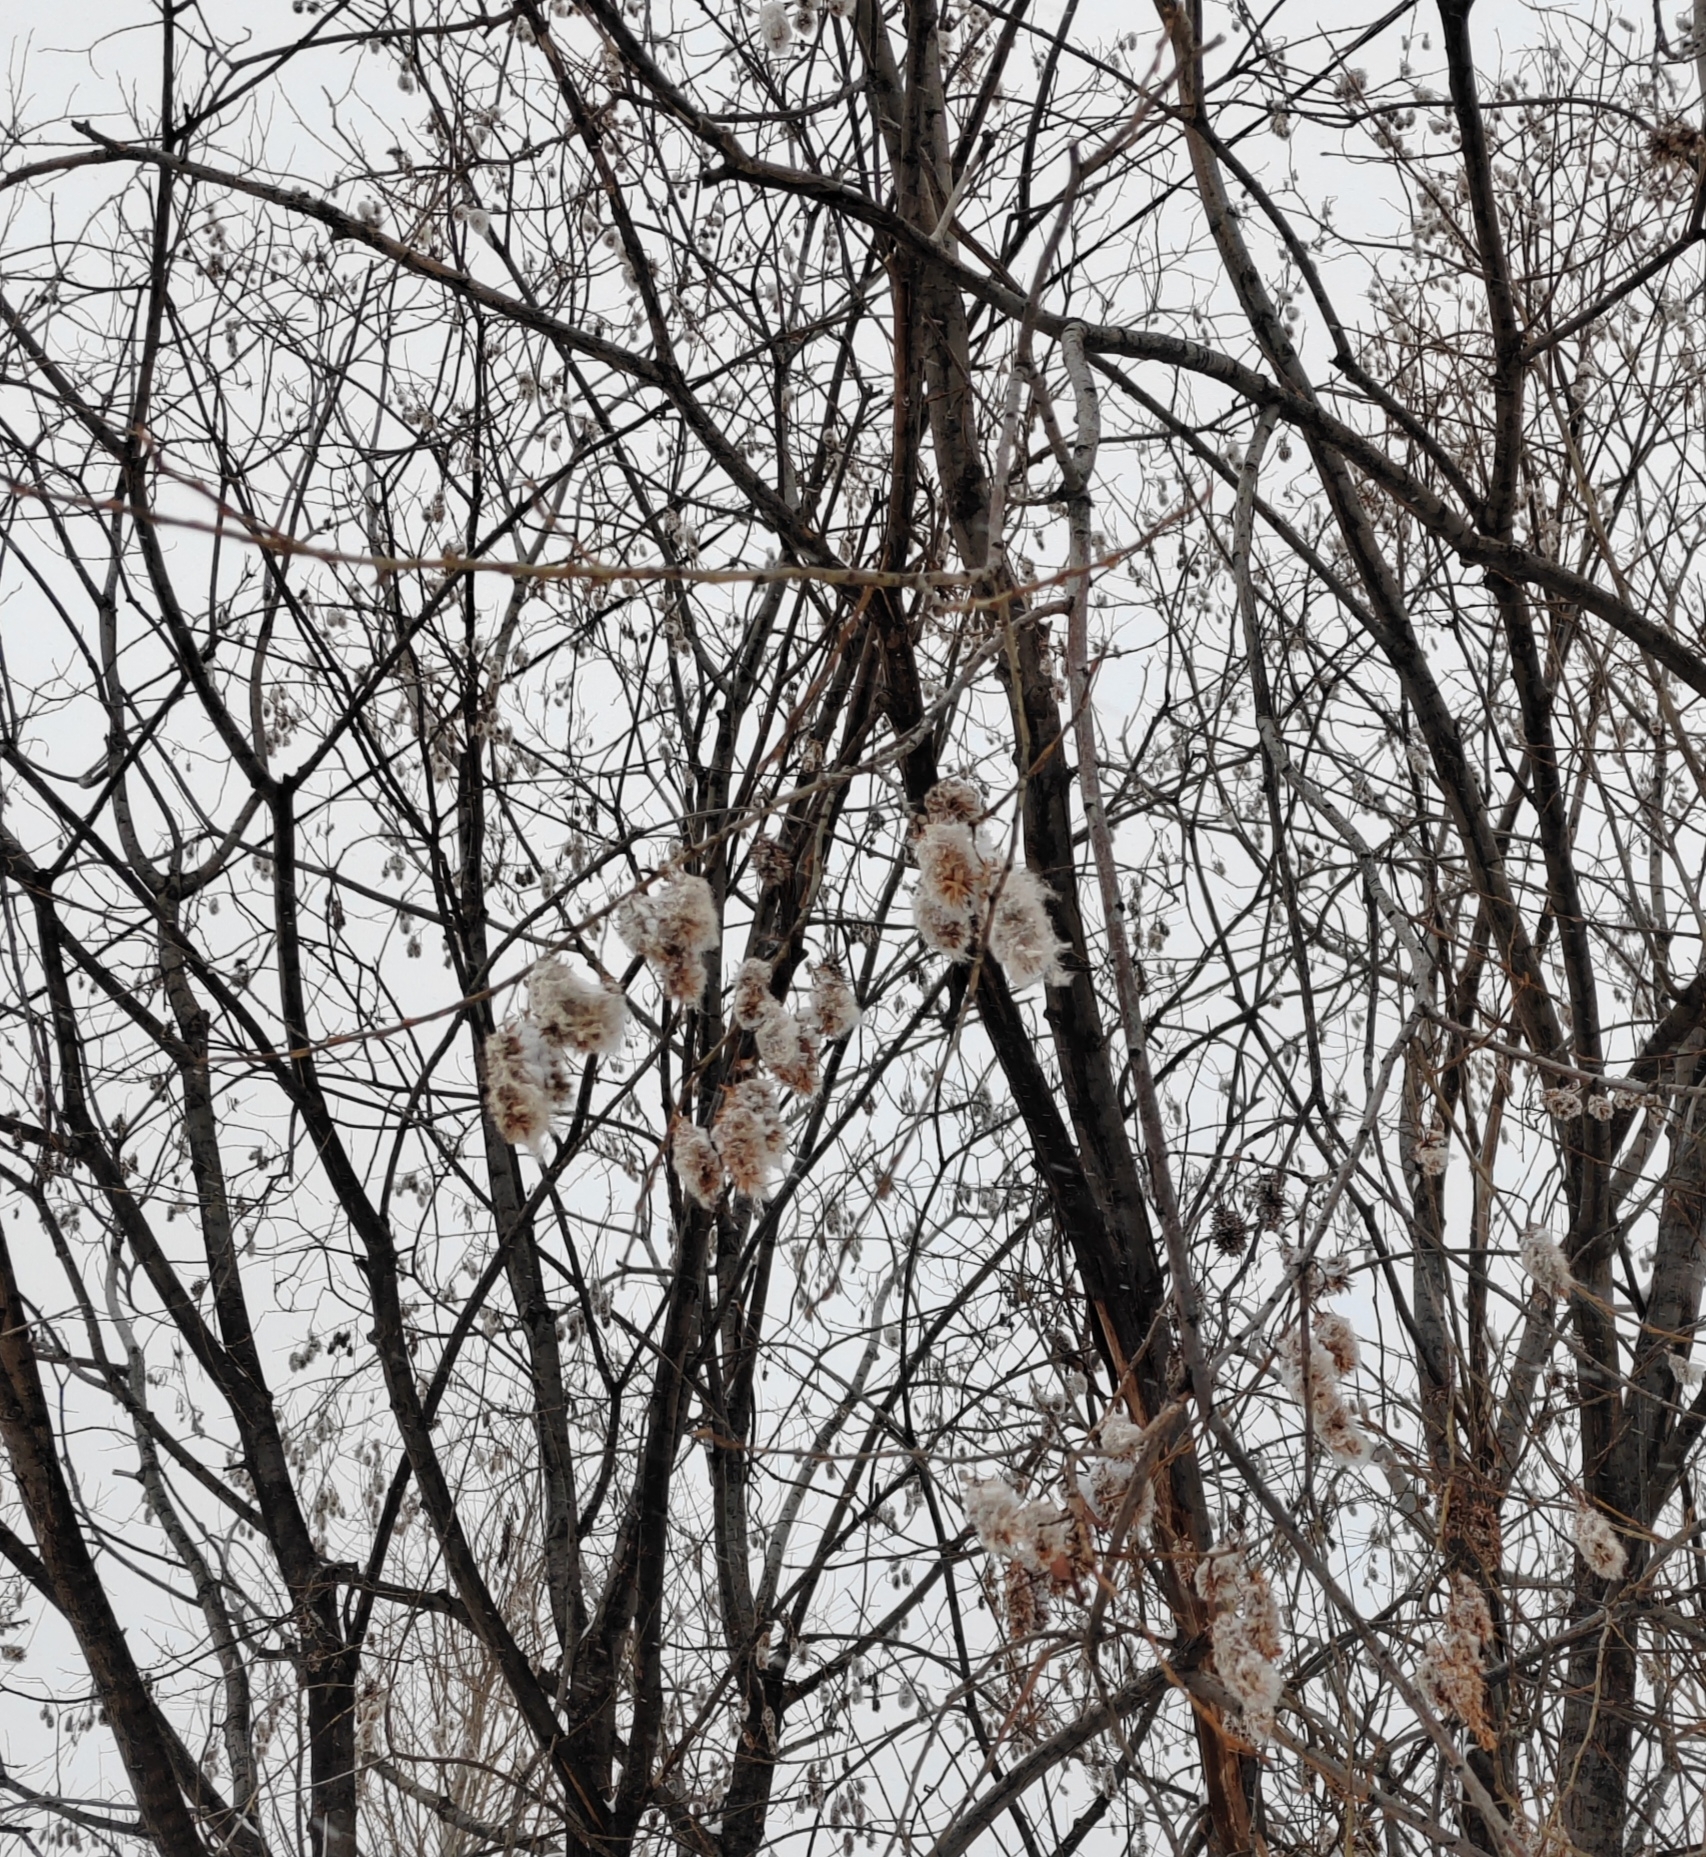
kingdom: Plantae
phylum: Tracheophyta
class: Magnoliopsida
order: Malpighiales
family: Salicaceae
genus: Salix
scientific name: Salix pentandra
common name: Bay willow
